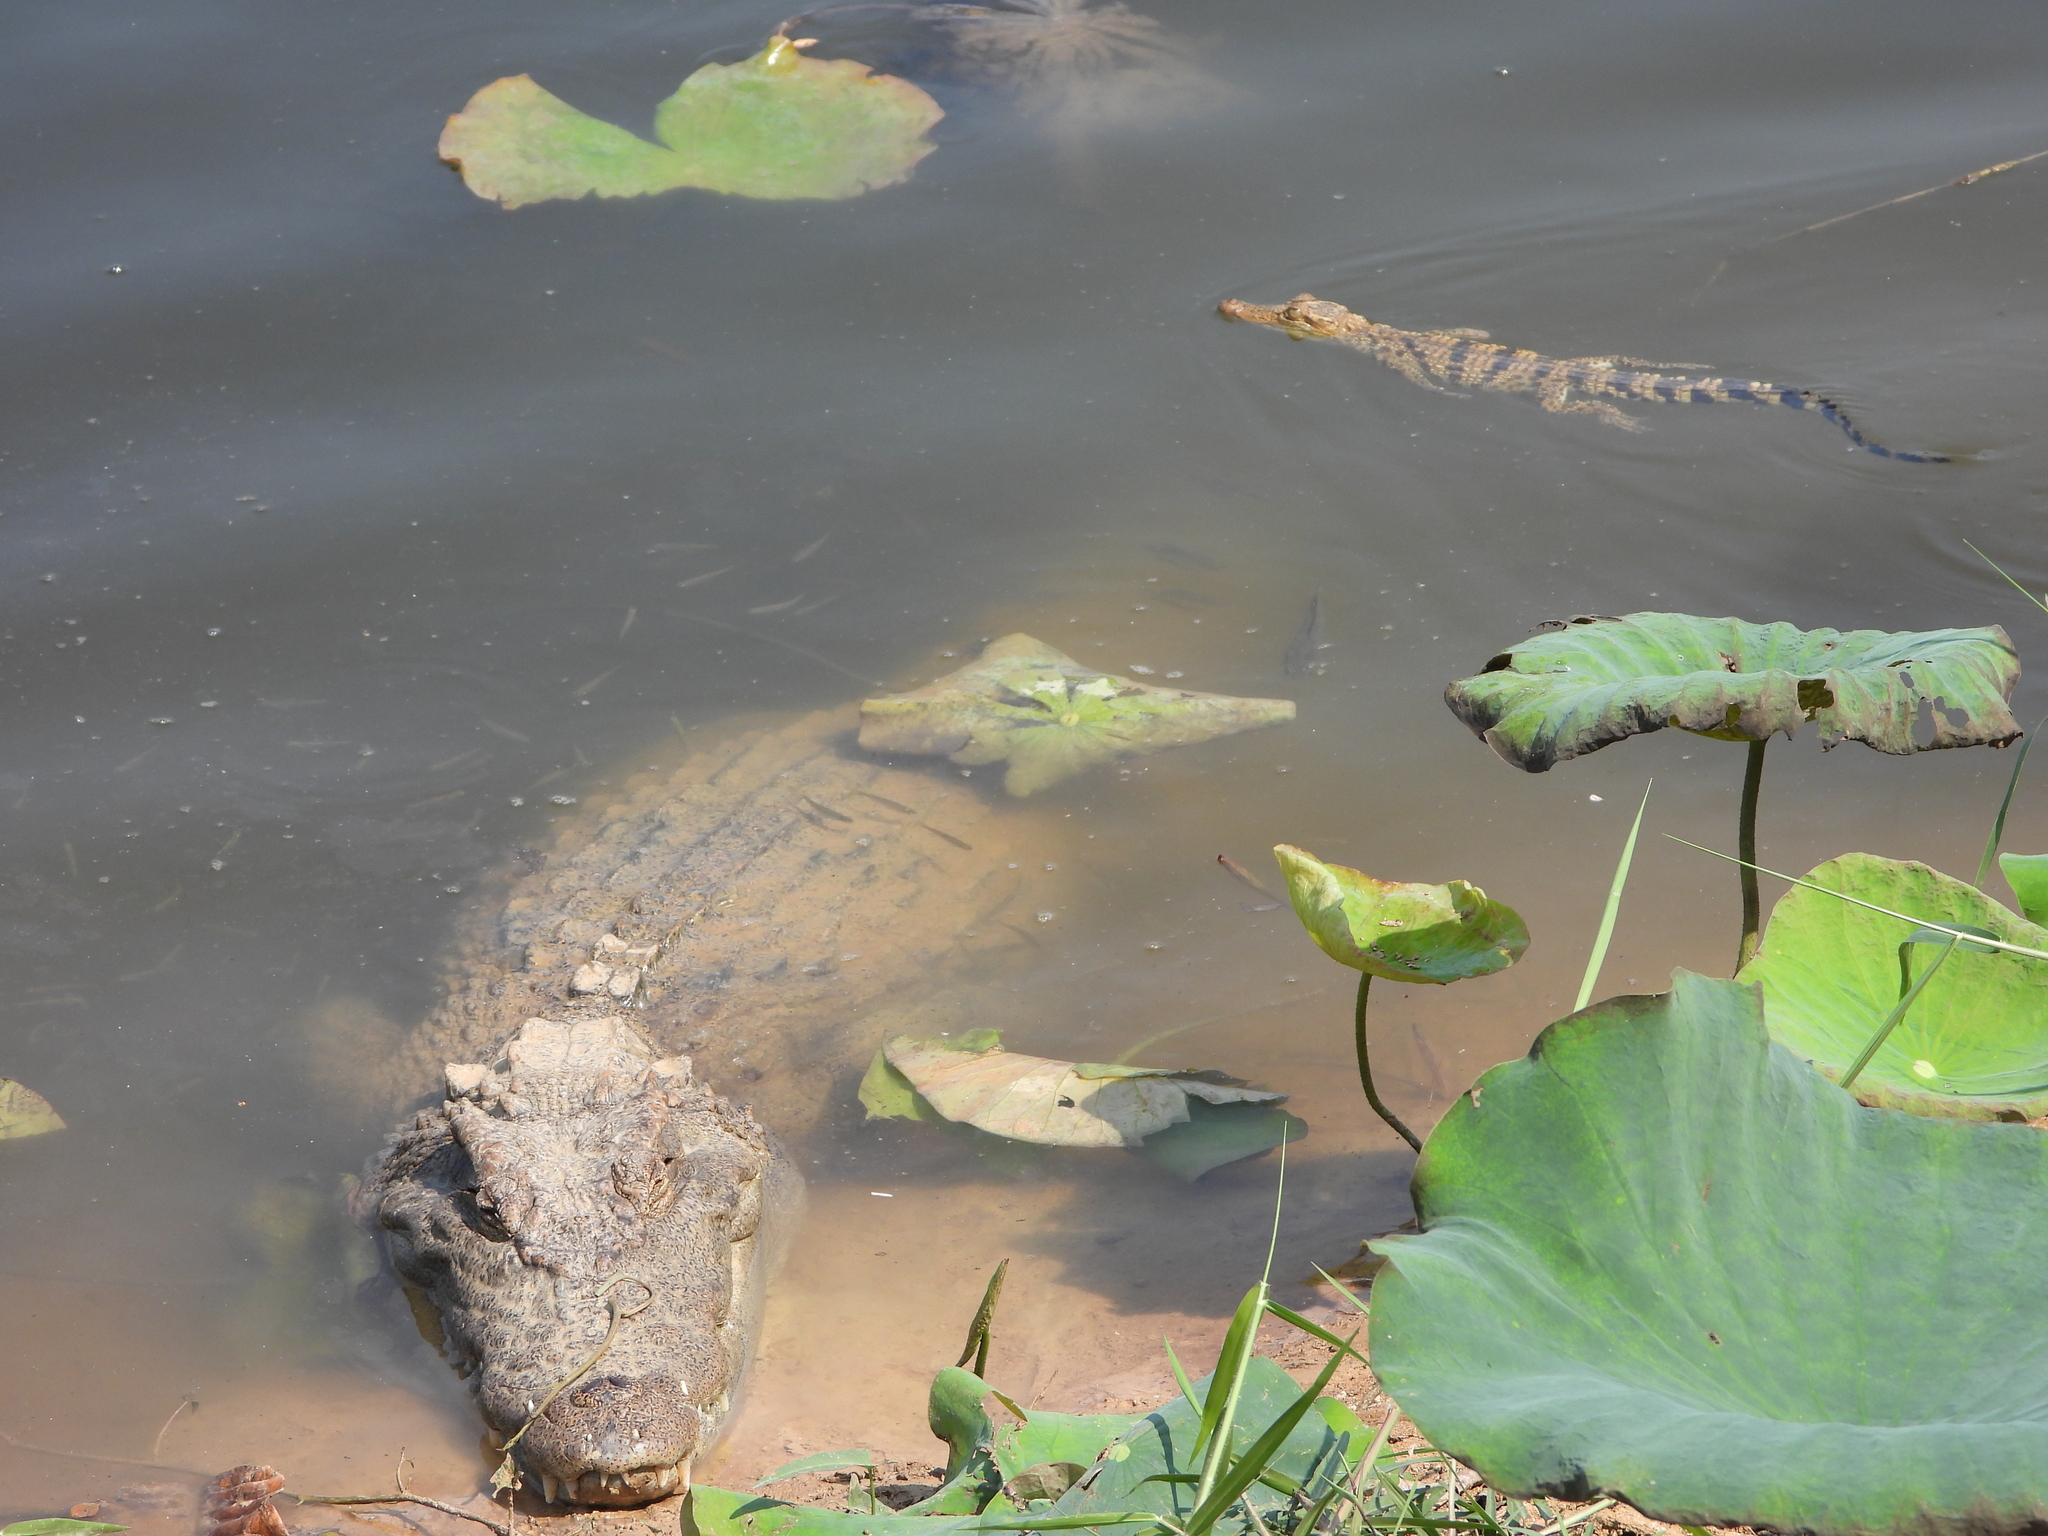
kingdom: Animalia
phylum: Chordata
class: Crocodylia
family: Crocodylidae
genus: Crocodylus
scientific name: Crocodylus siamensis
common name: Siamese crocodile
